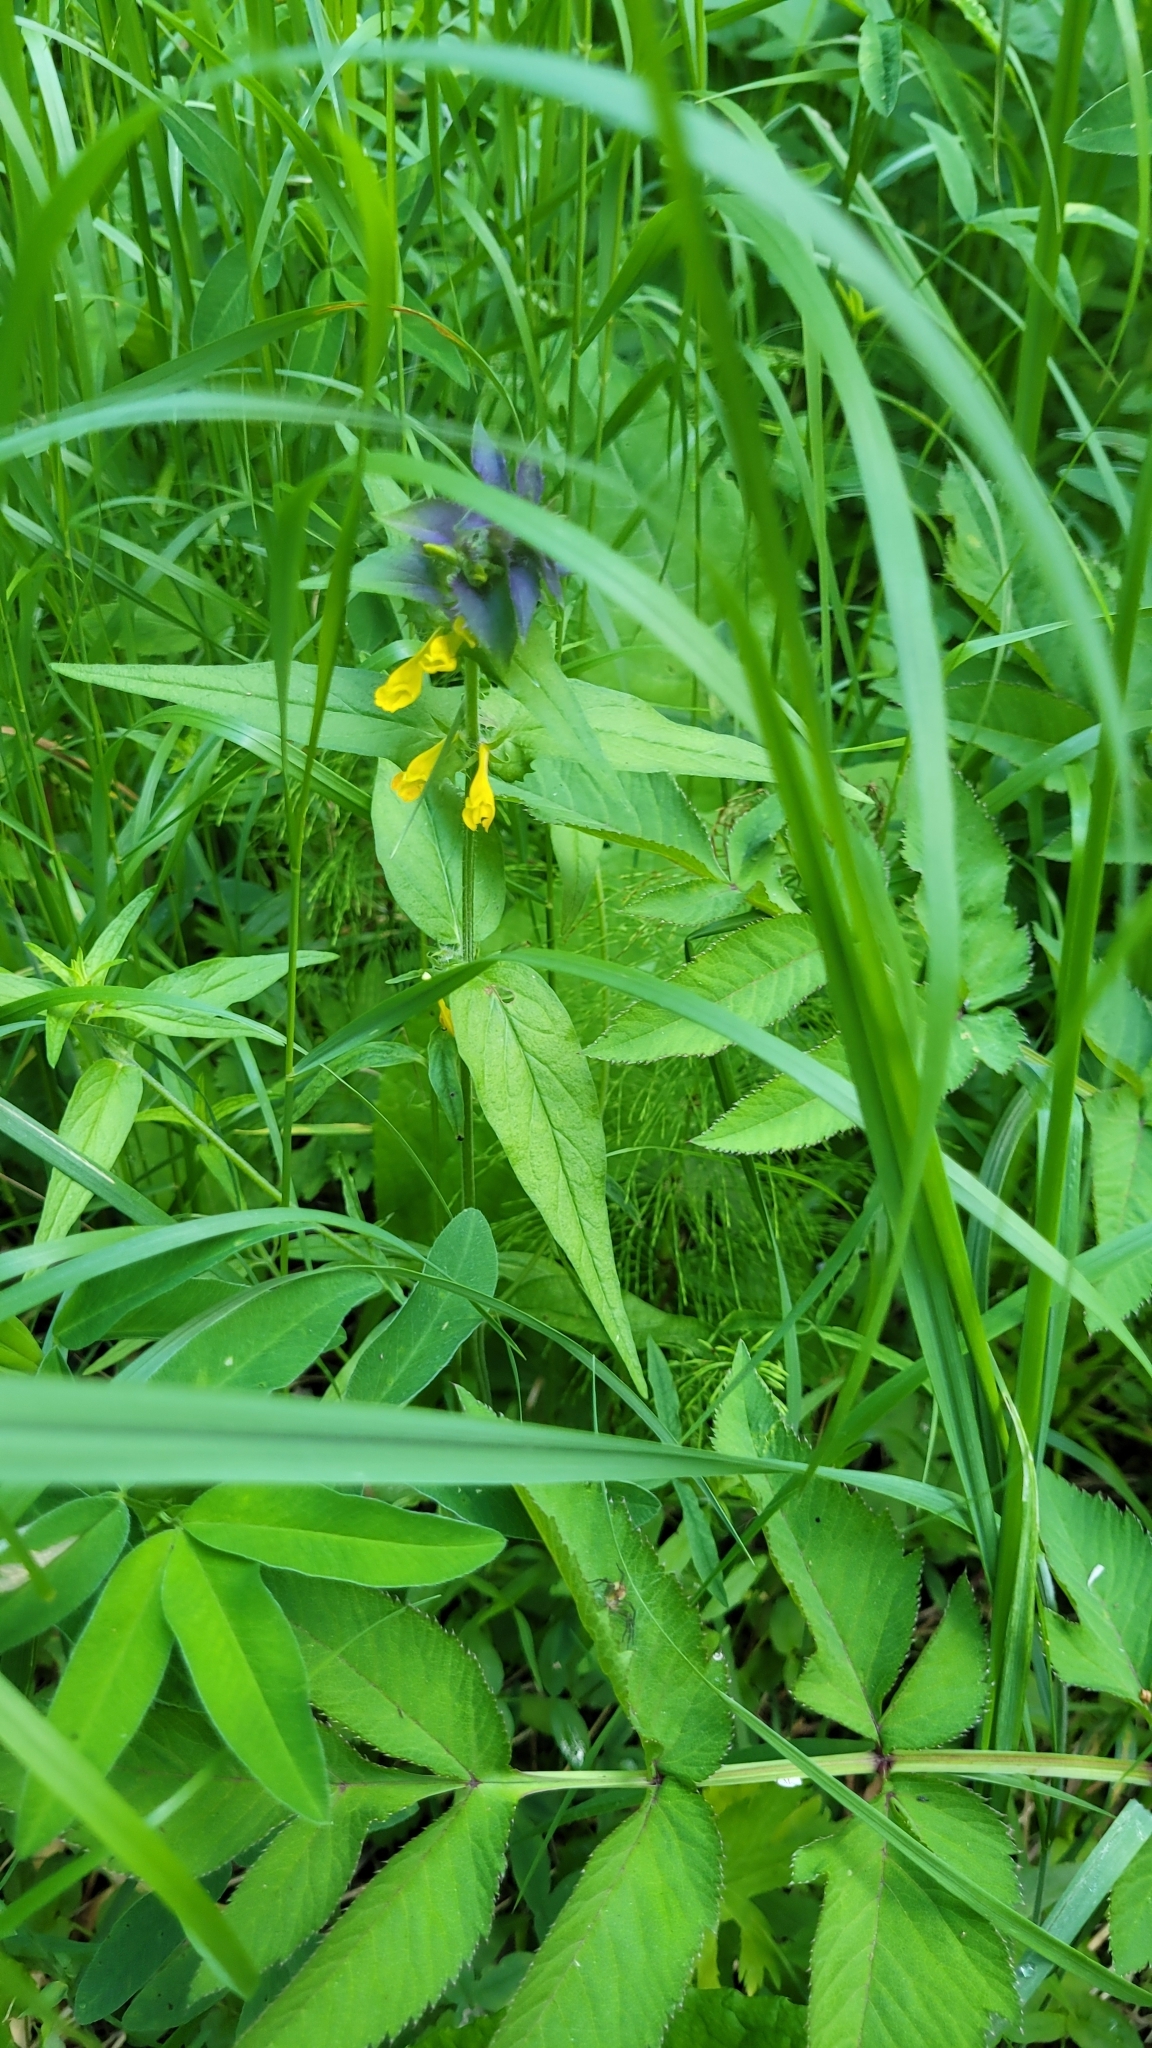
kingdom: Plantae
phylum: Tracheophyta
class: Magnoliopsida
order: Lamiales
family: Orobanchaceae
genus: Melampyrum
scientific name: Melampyrum nemorosum
